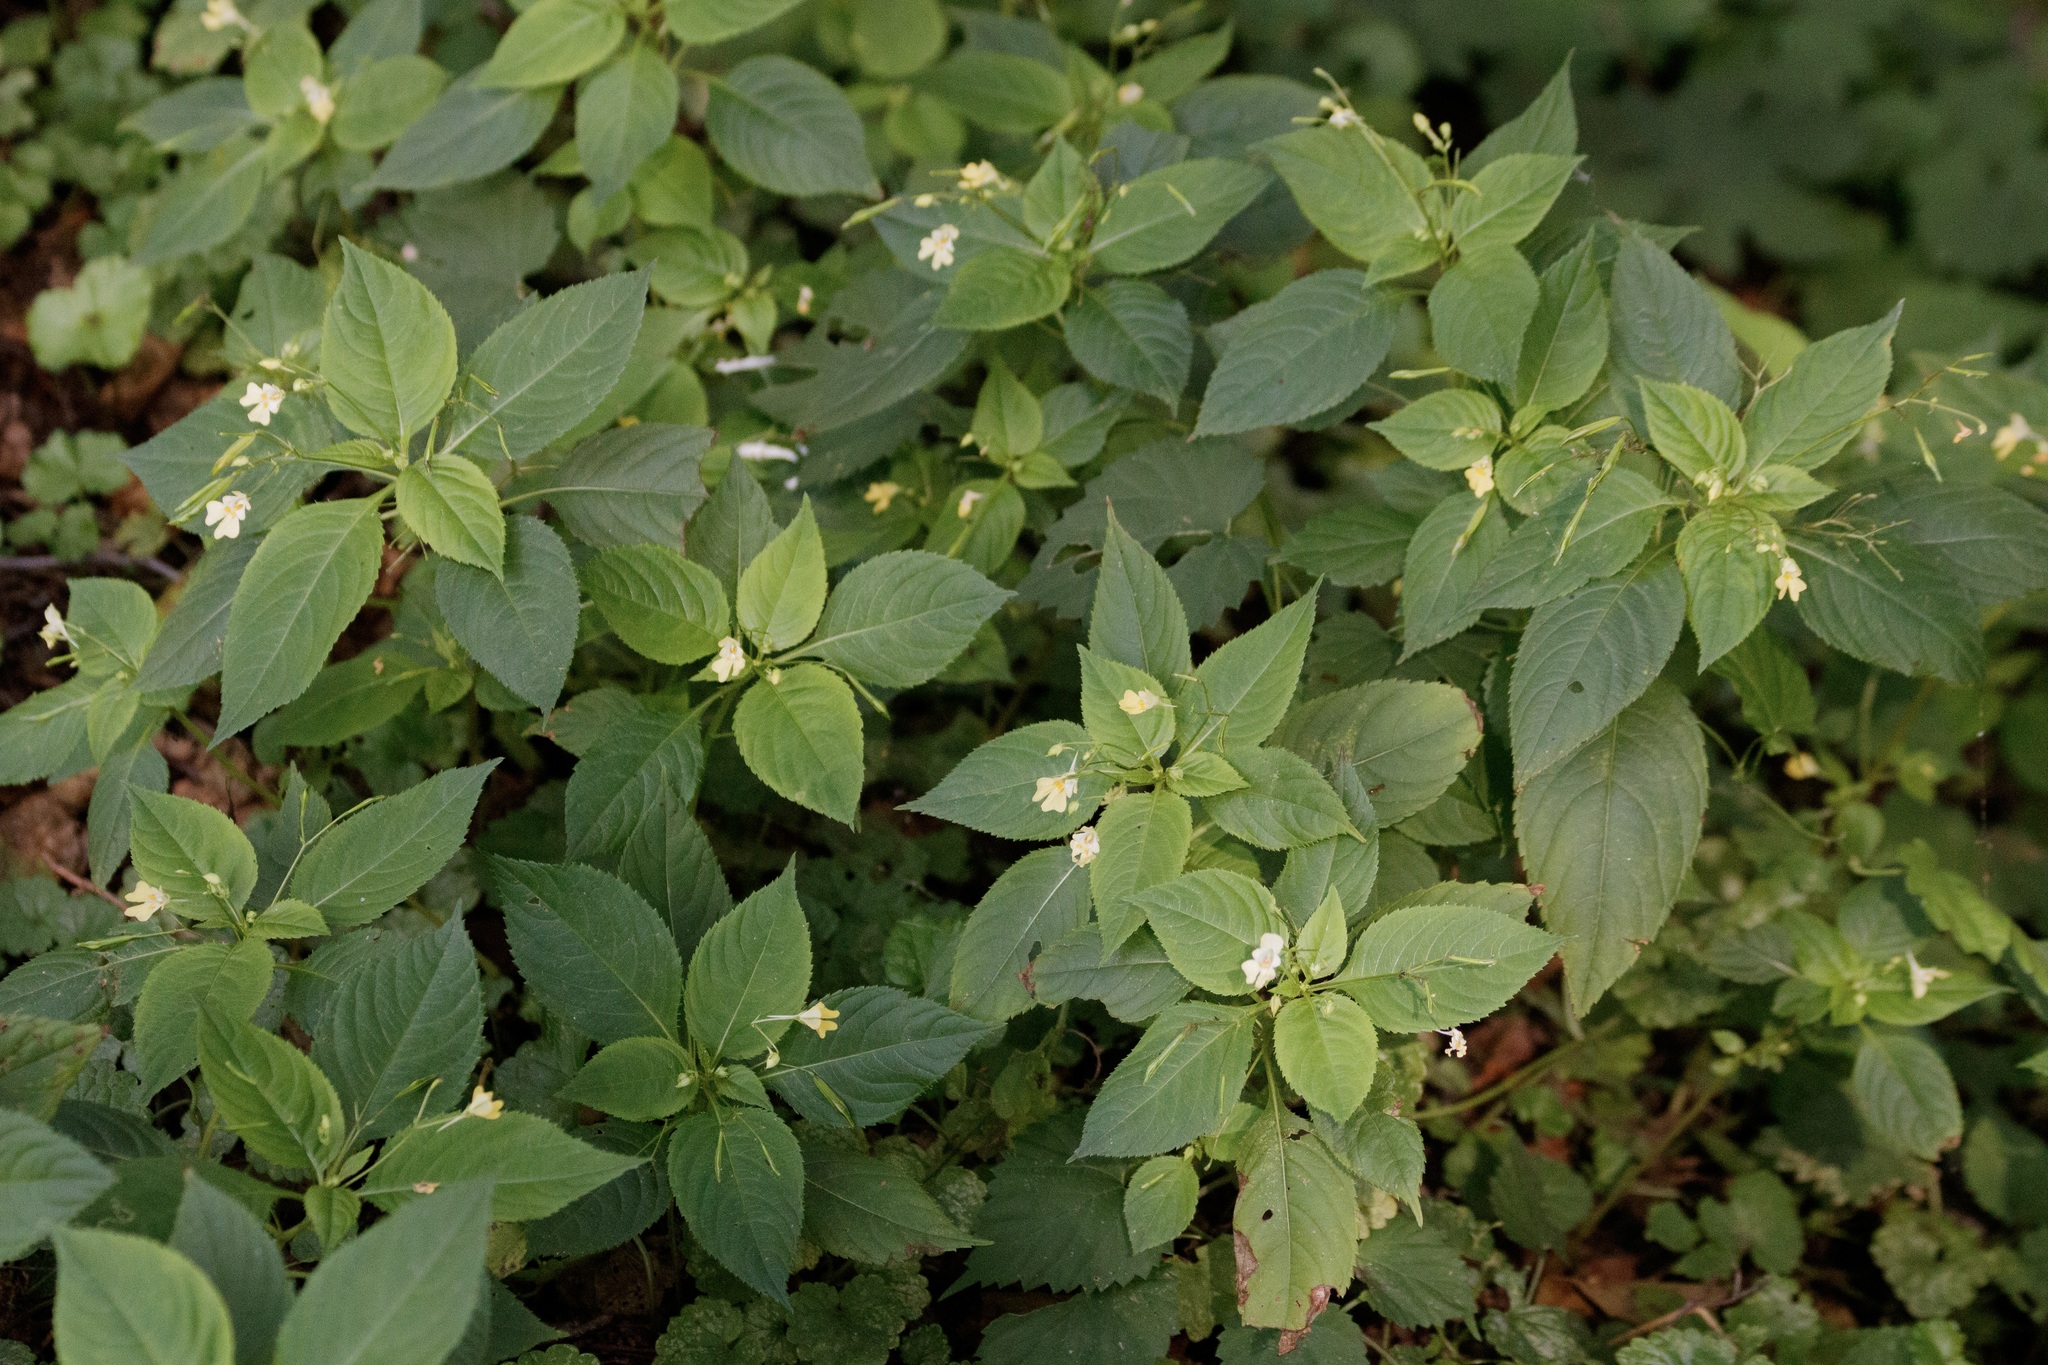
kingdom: Plantae
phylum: Tracheophyta
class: Magnoliopsida
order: Ericales
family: Balsaminaceae
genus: Impatiens
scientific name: Impatiens parviflora
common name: Small balsam
